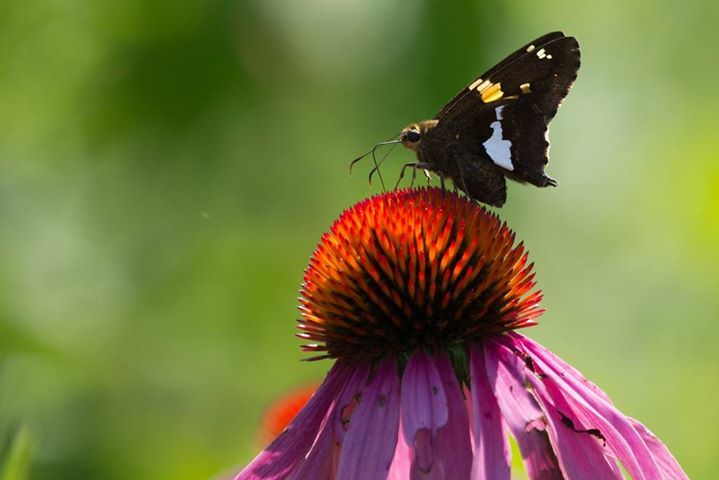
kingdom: Animalia
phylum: Arthropoda
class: Insecta
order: Lepidoptera
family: Hesperiidae
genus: Epargyreus
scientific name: Epargyreus clarus
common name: Silver-spotted skipper
